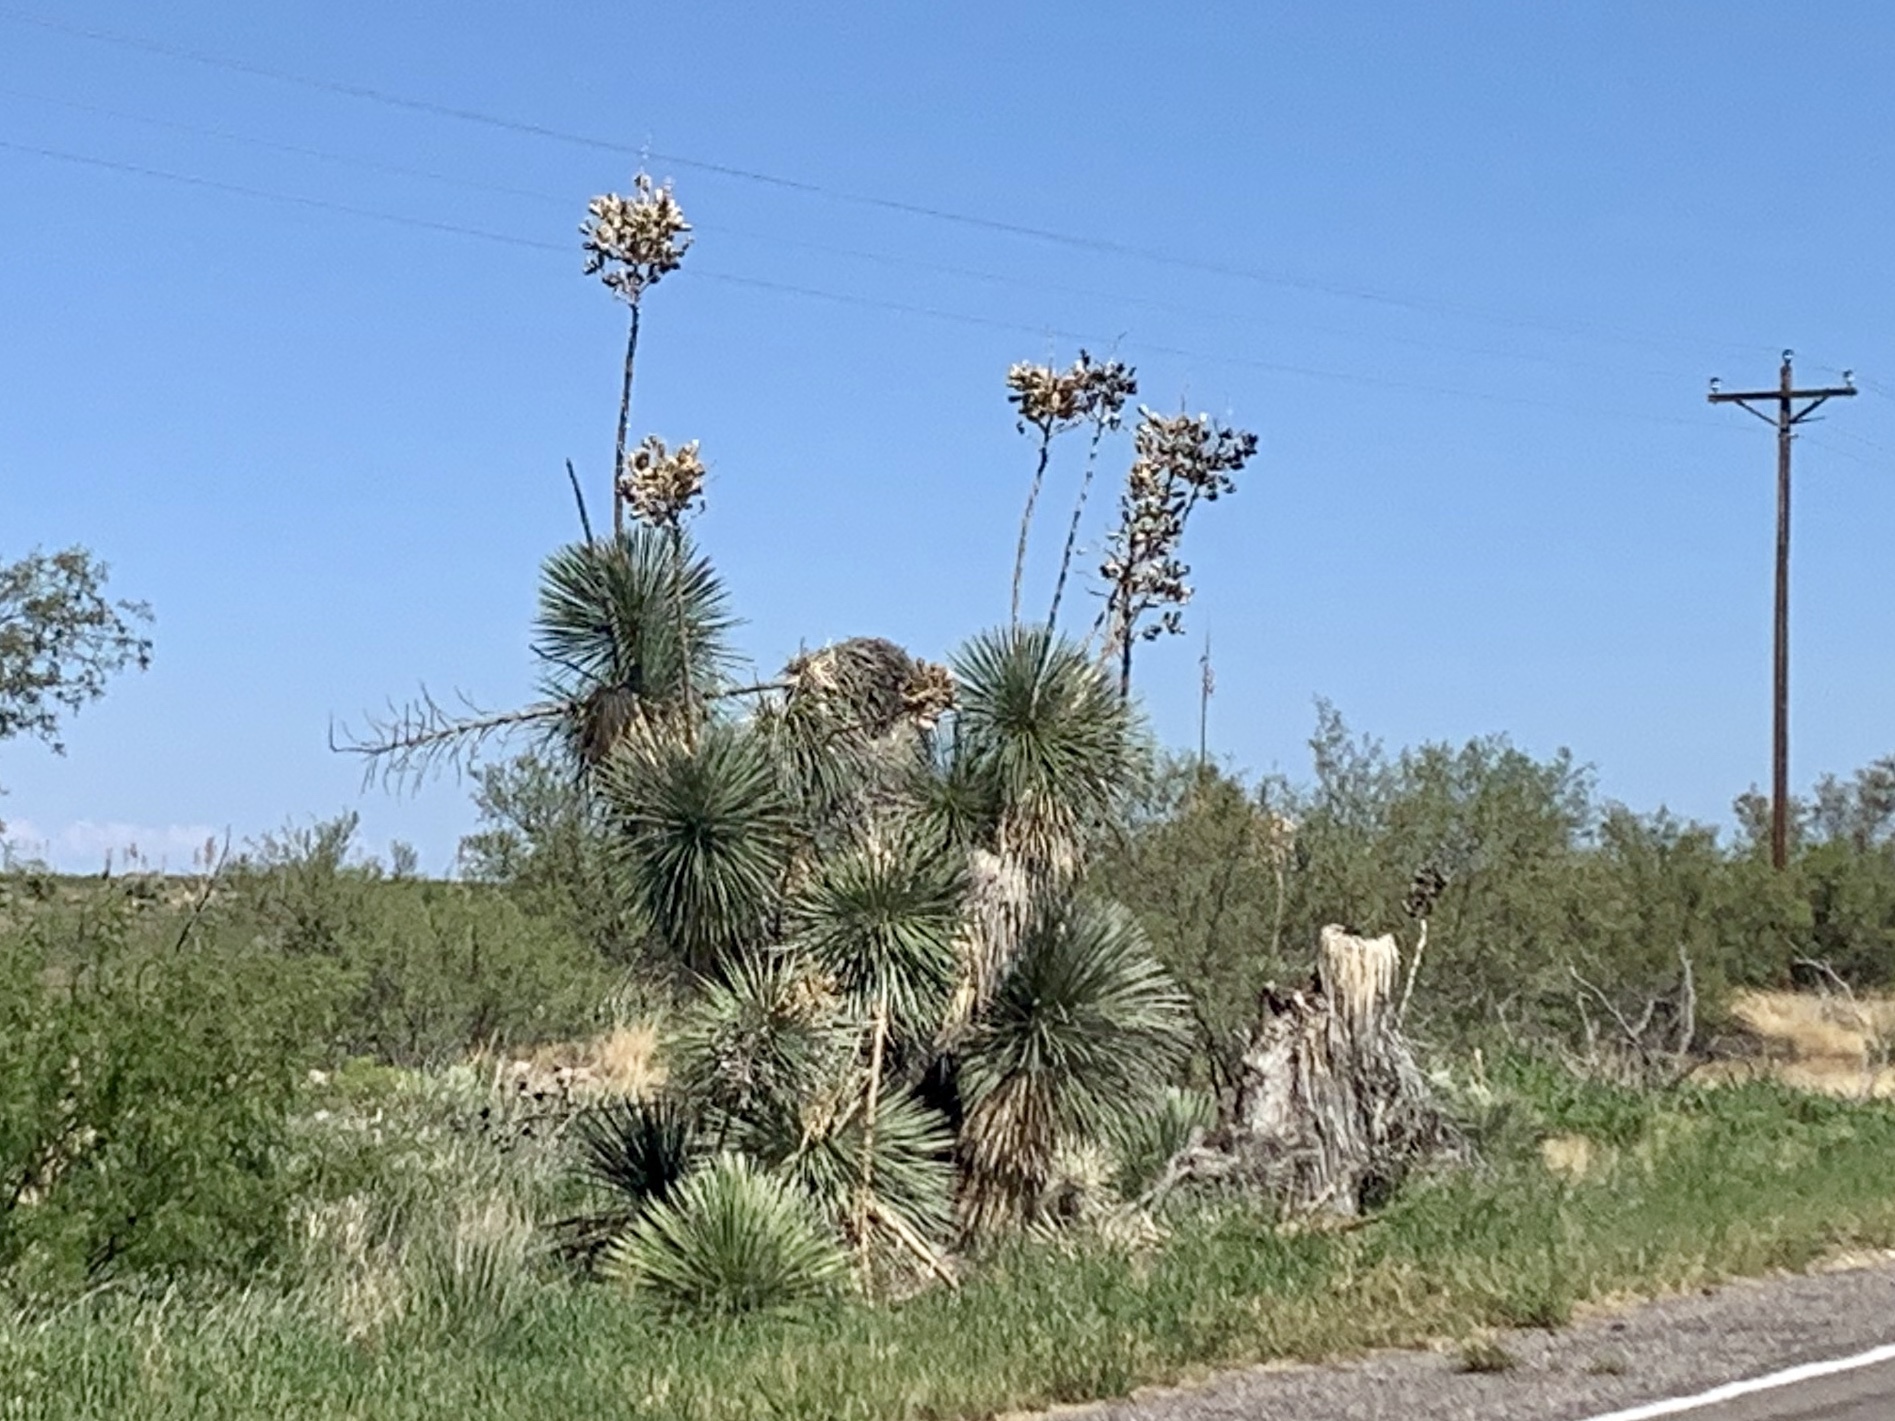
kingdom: Plantae
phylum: Tracheophyta
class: Liliopsida
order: Asparagales
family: Asparagaceae
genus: Yucca
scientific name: Yucca elata
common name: Palmella
